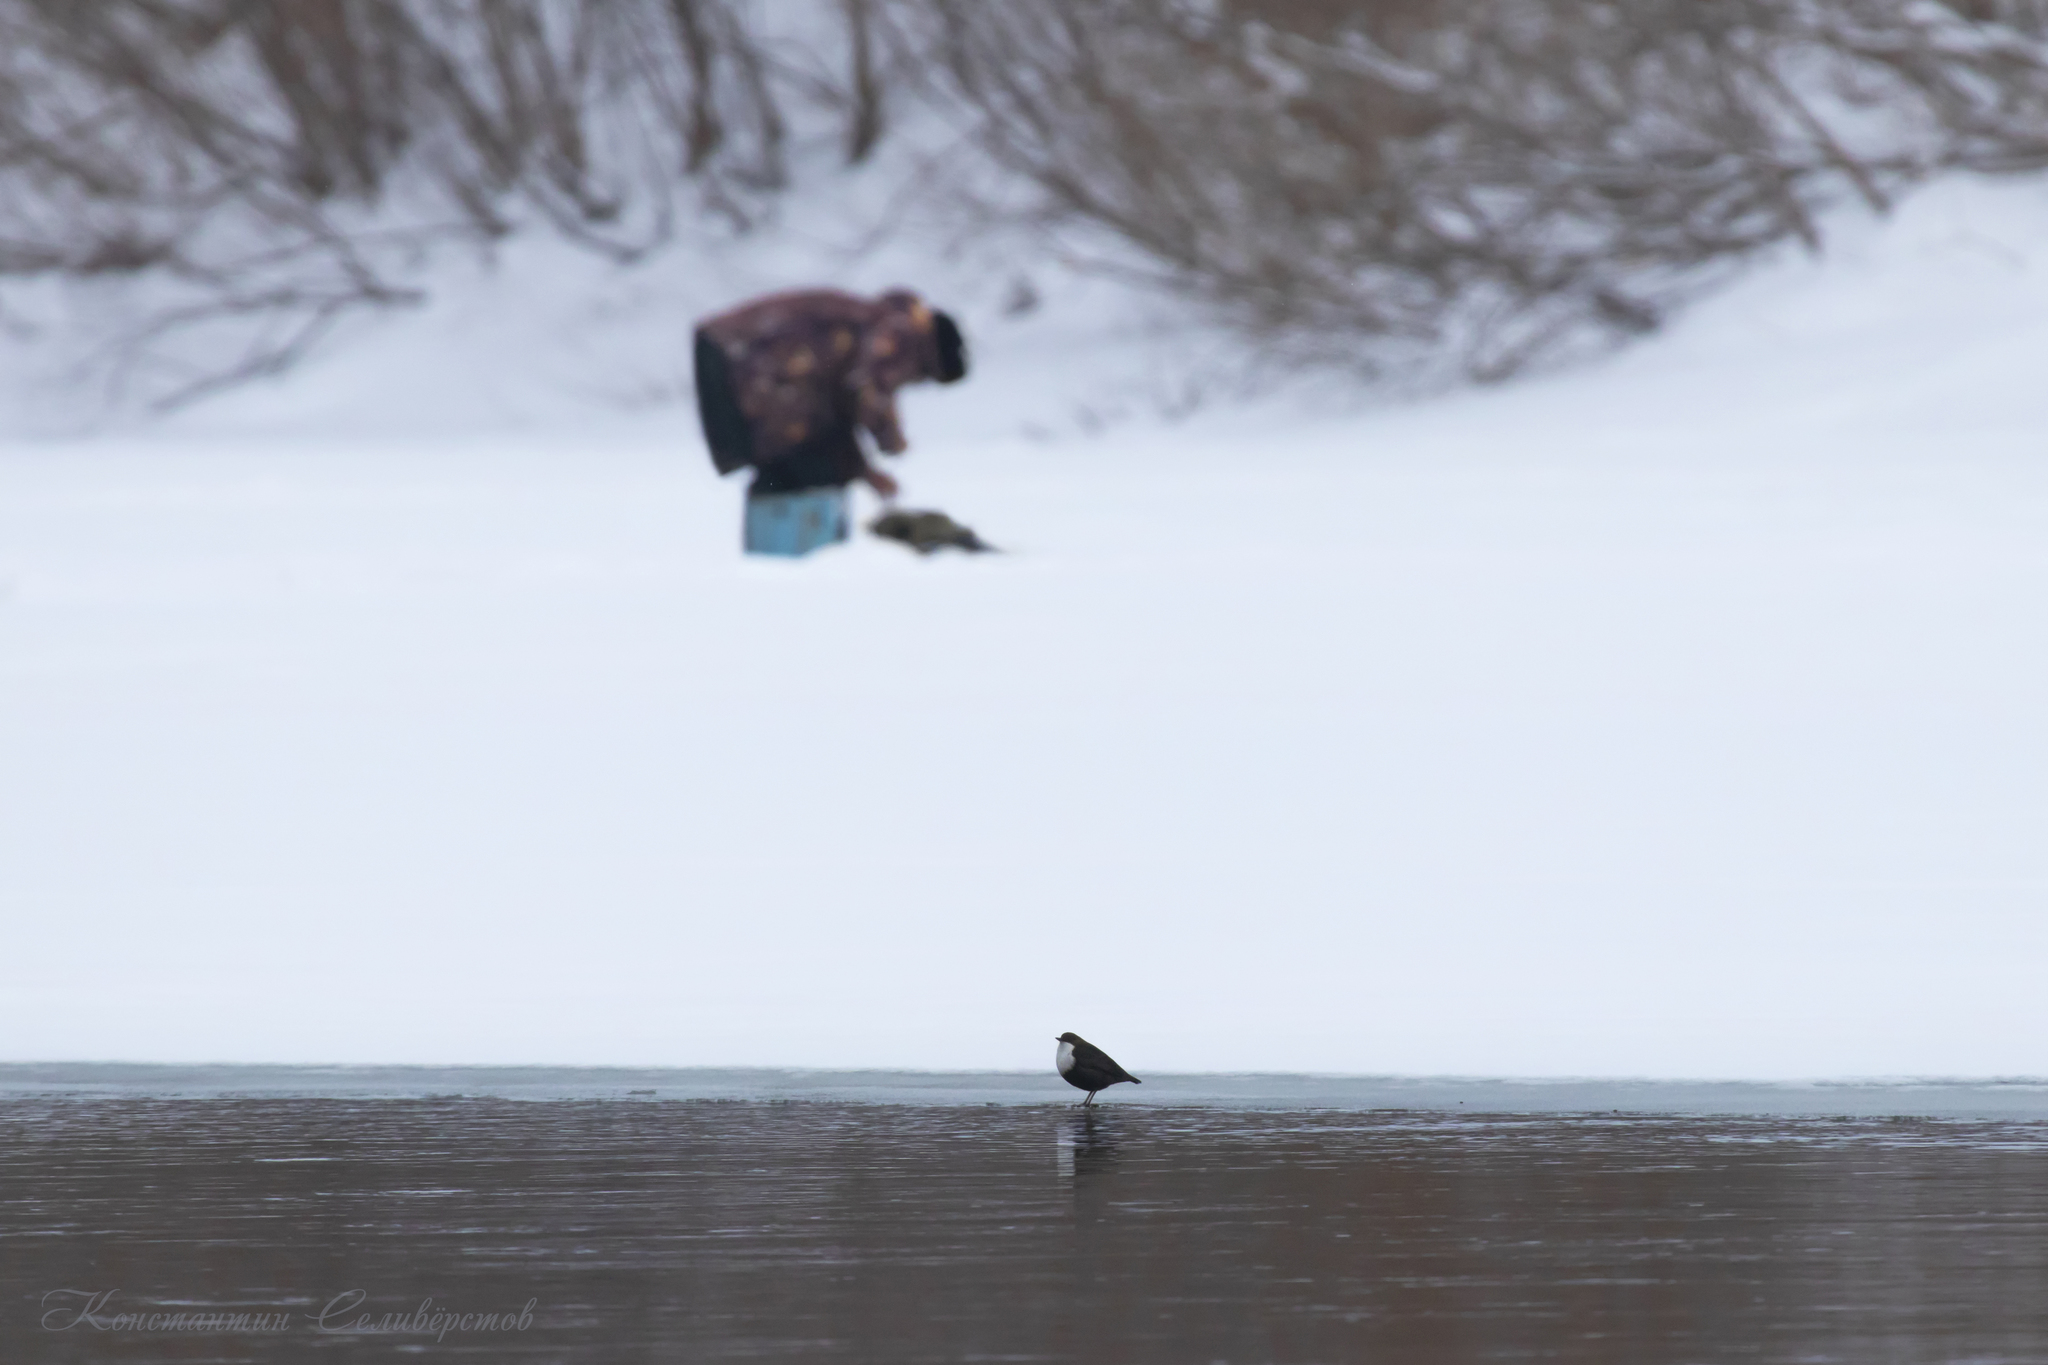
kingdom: Animalia
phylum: Chordata
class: Aves
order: Passeriformes
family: Cinclidae
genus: Cinclus
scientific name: Cinclus cinclus
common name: White-throated dipper
